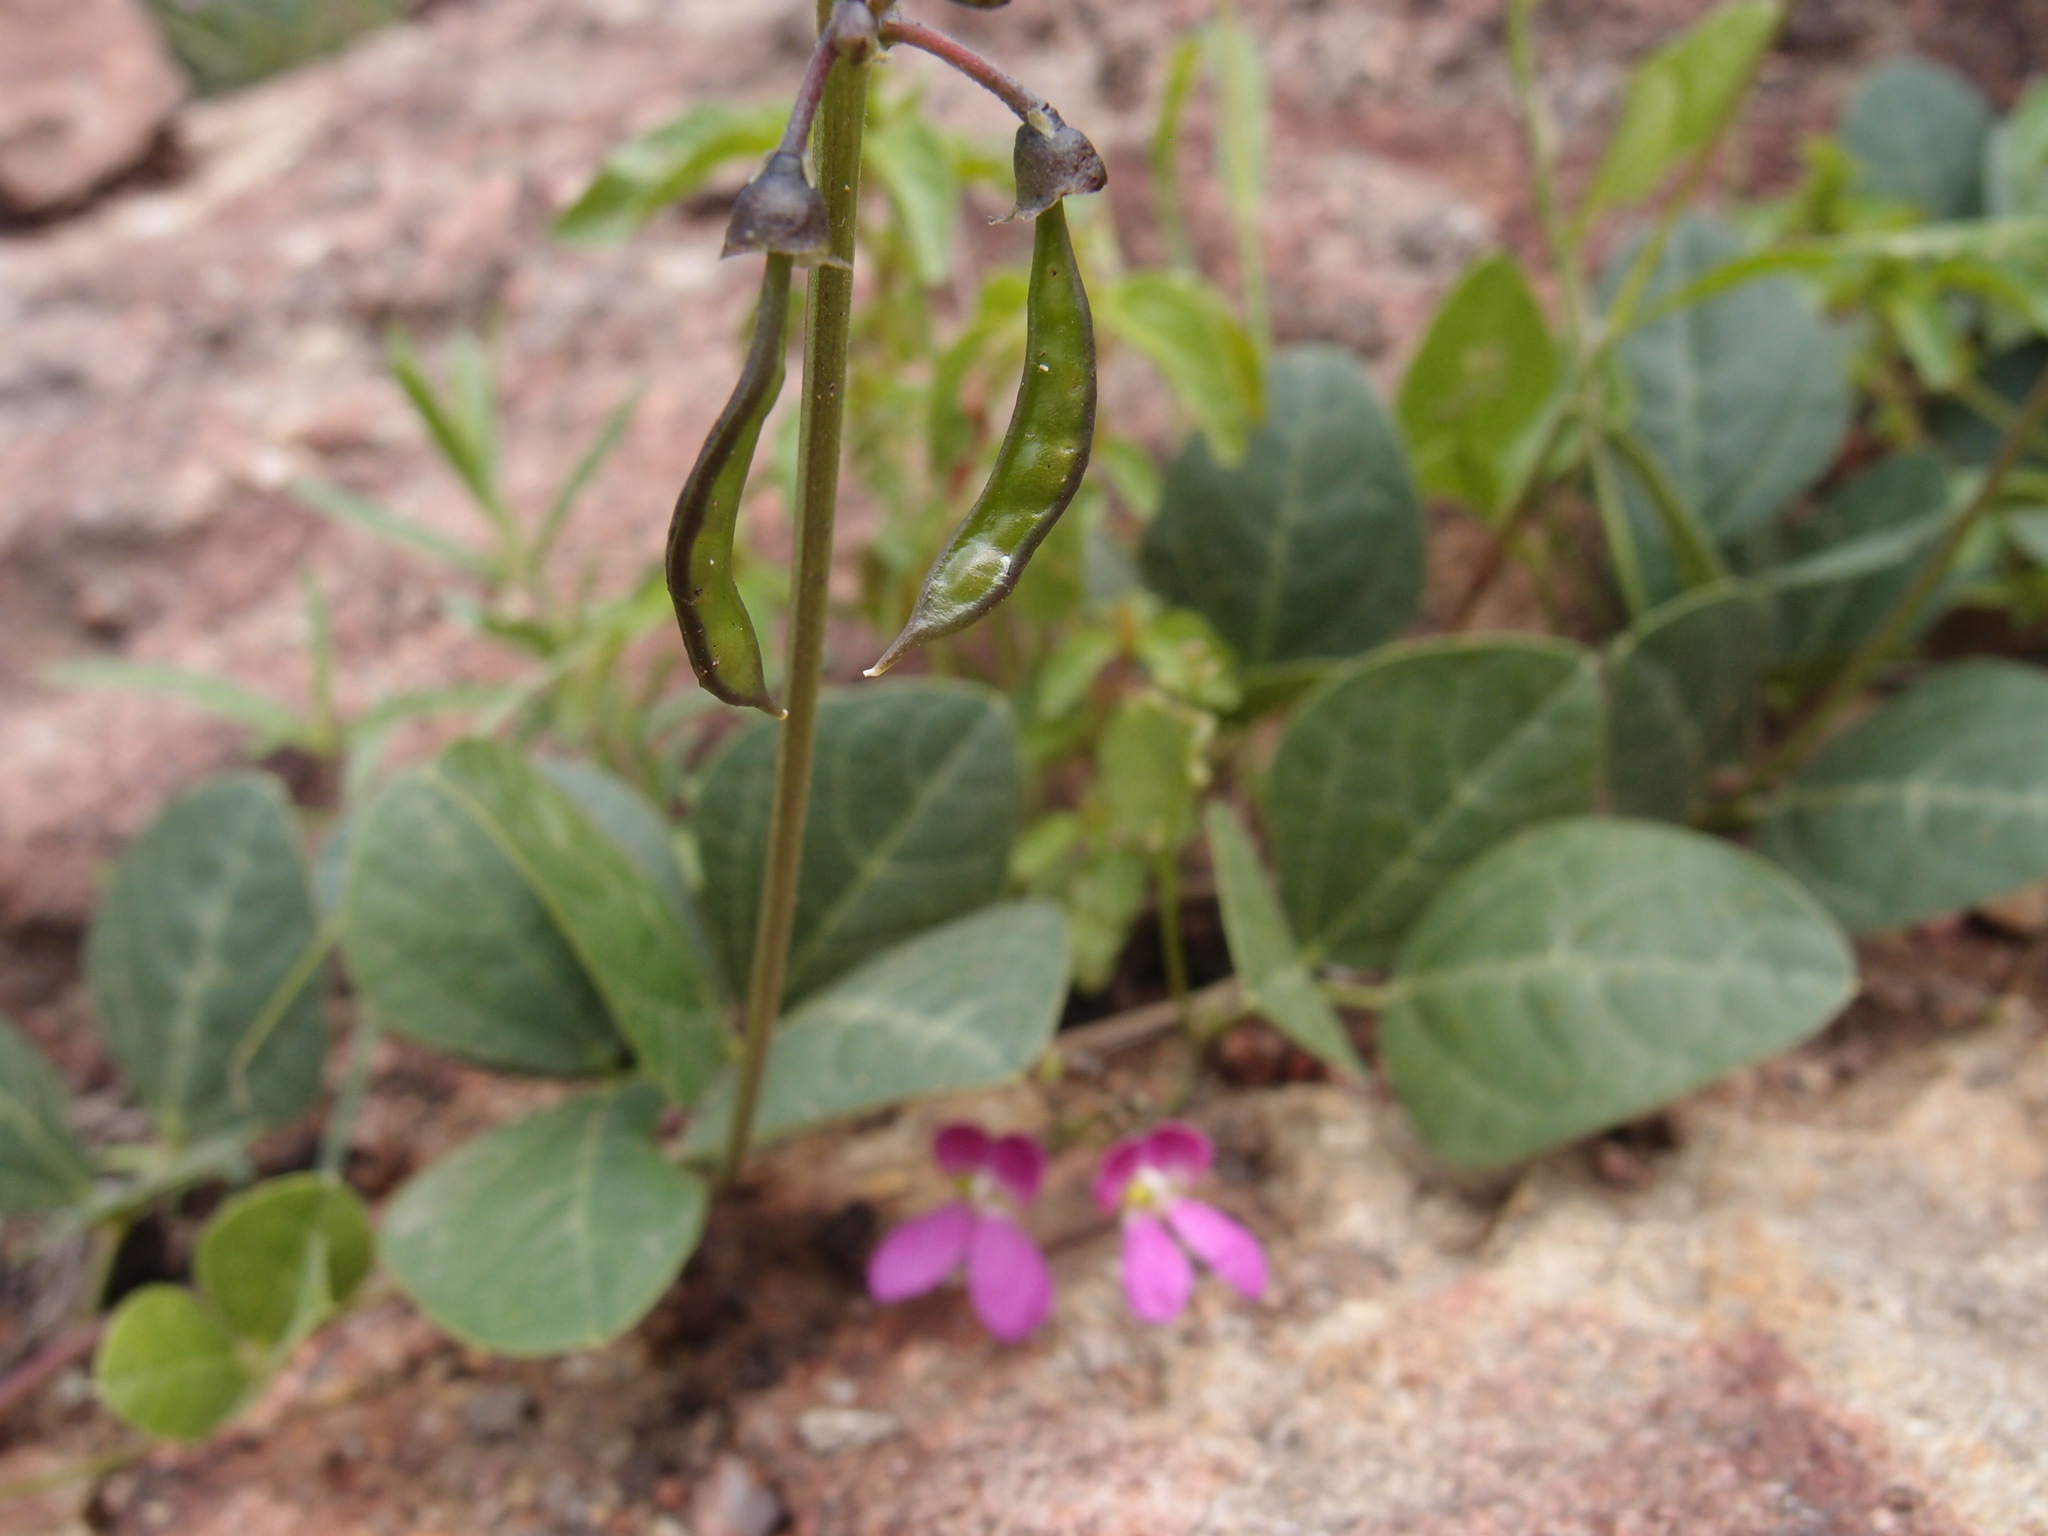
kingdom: Plantae
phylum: Tracheophyta
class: Magnoliopsida
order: Fabales
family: Fabaceae
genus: Phaseolus
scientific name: Phaseolus maculatus
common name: Metcalfe bean
